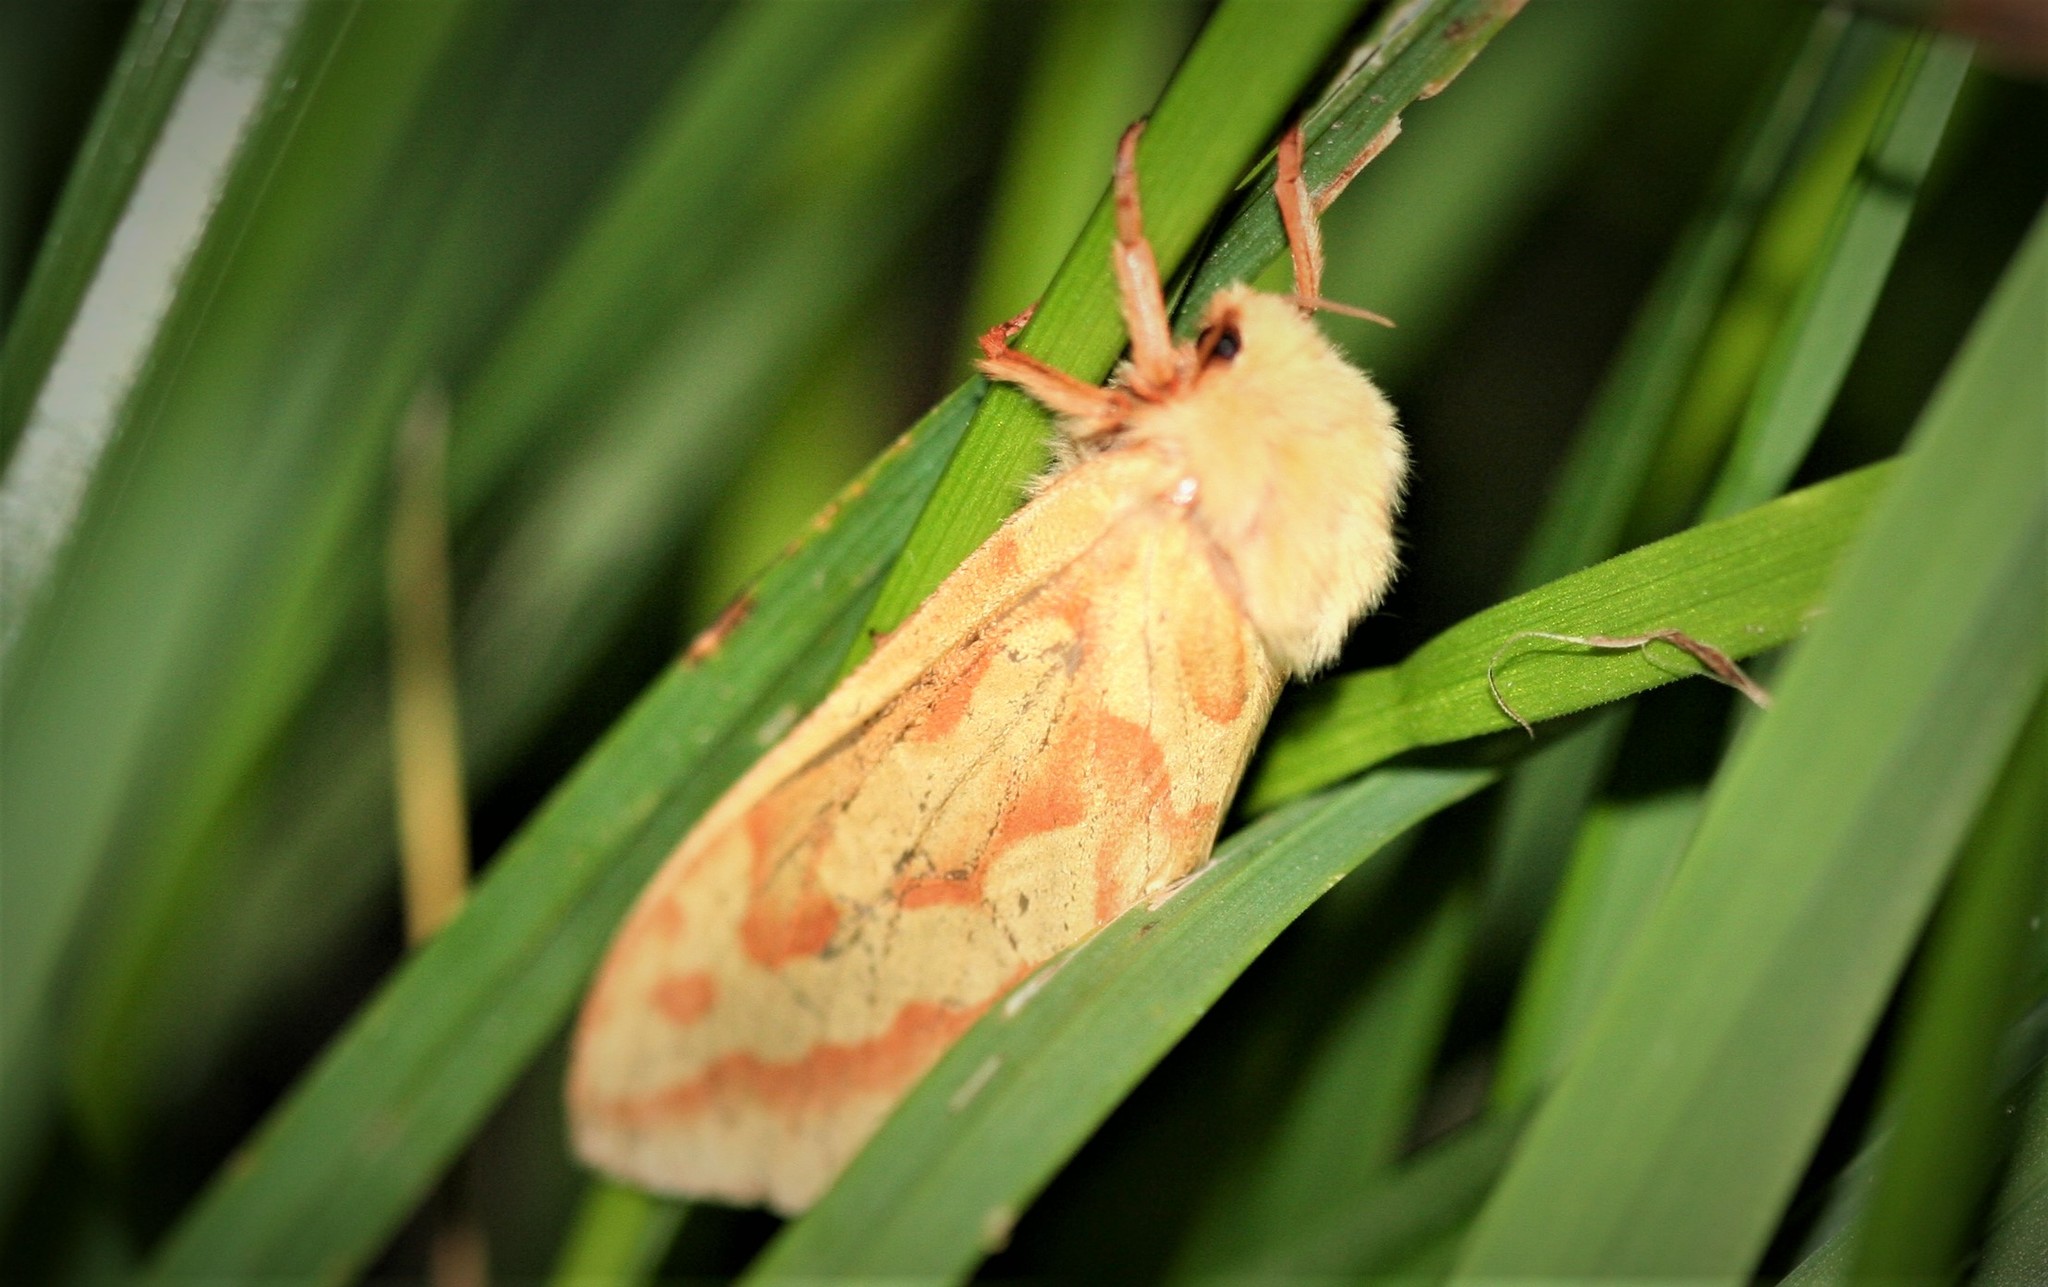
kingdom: Animalia
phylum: Arthropoda
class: Insecta
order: Lepidoptera
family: Hepialidae
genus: Hepialus
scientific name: Hepialus humuli
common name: Ghost moth
